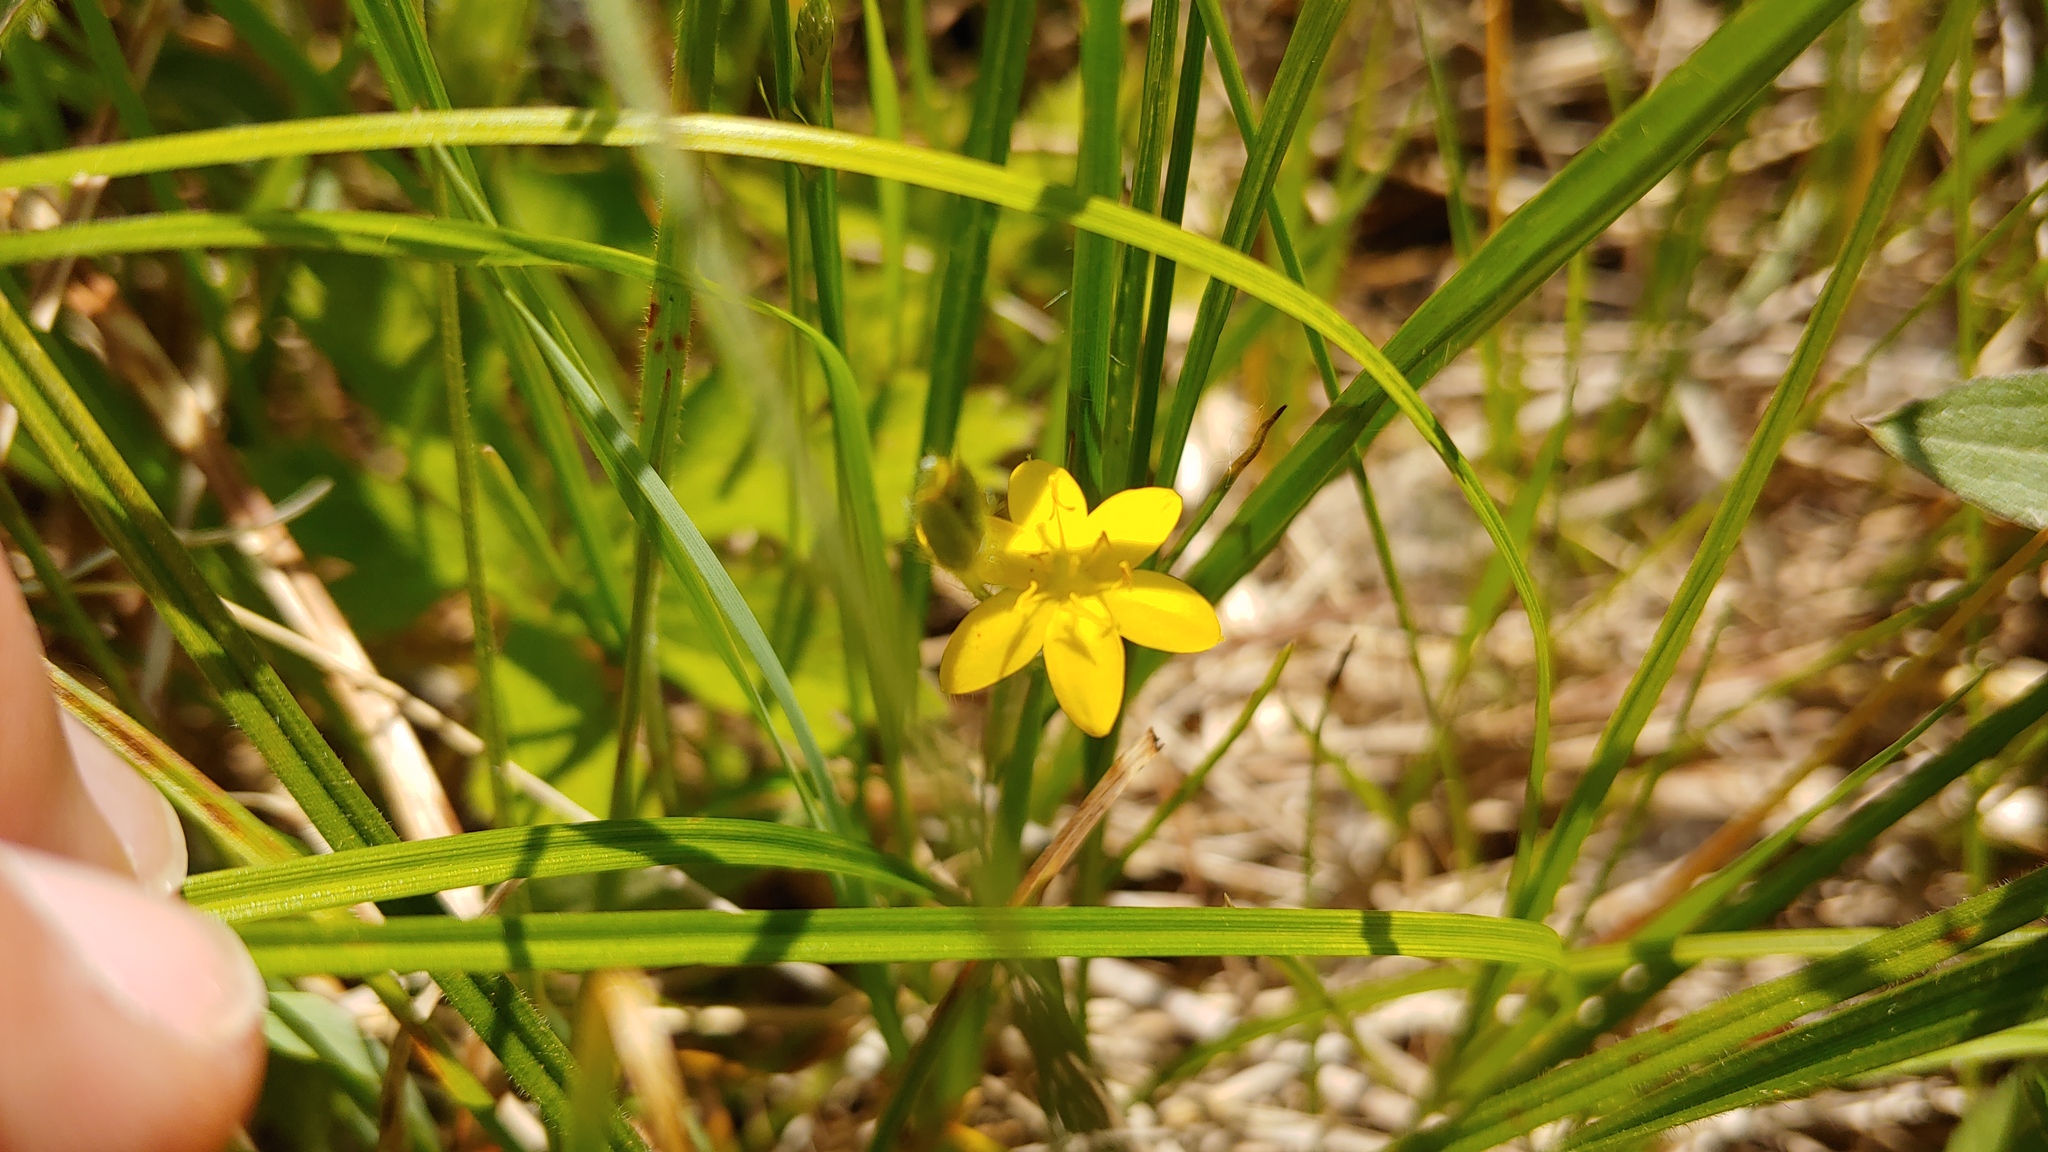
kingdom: Plantae
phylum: Tracheophyta
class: Liliopsida
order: Asparagales
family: Hypoxidaceae
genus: Hypoxis
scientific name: Hypoxis hirsuta
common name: Common goldstar
